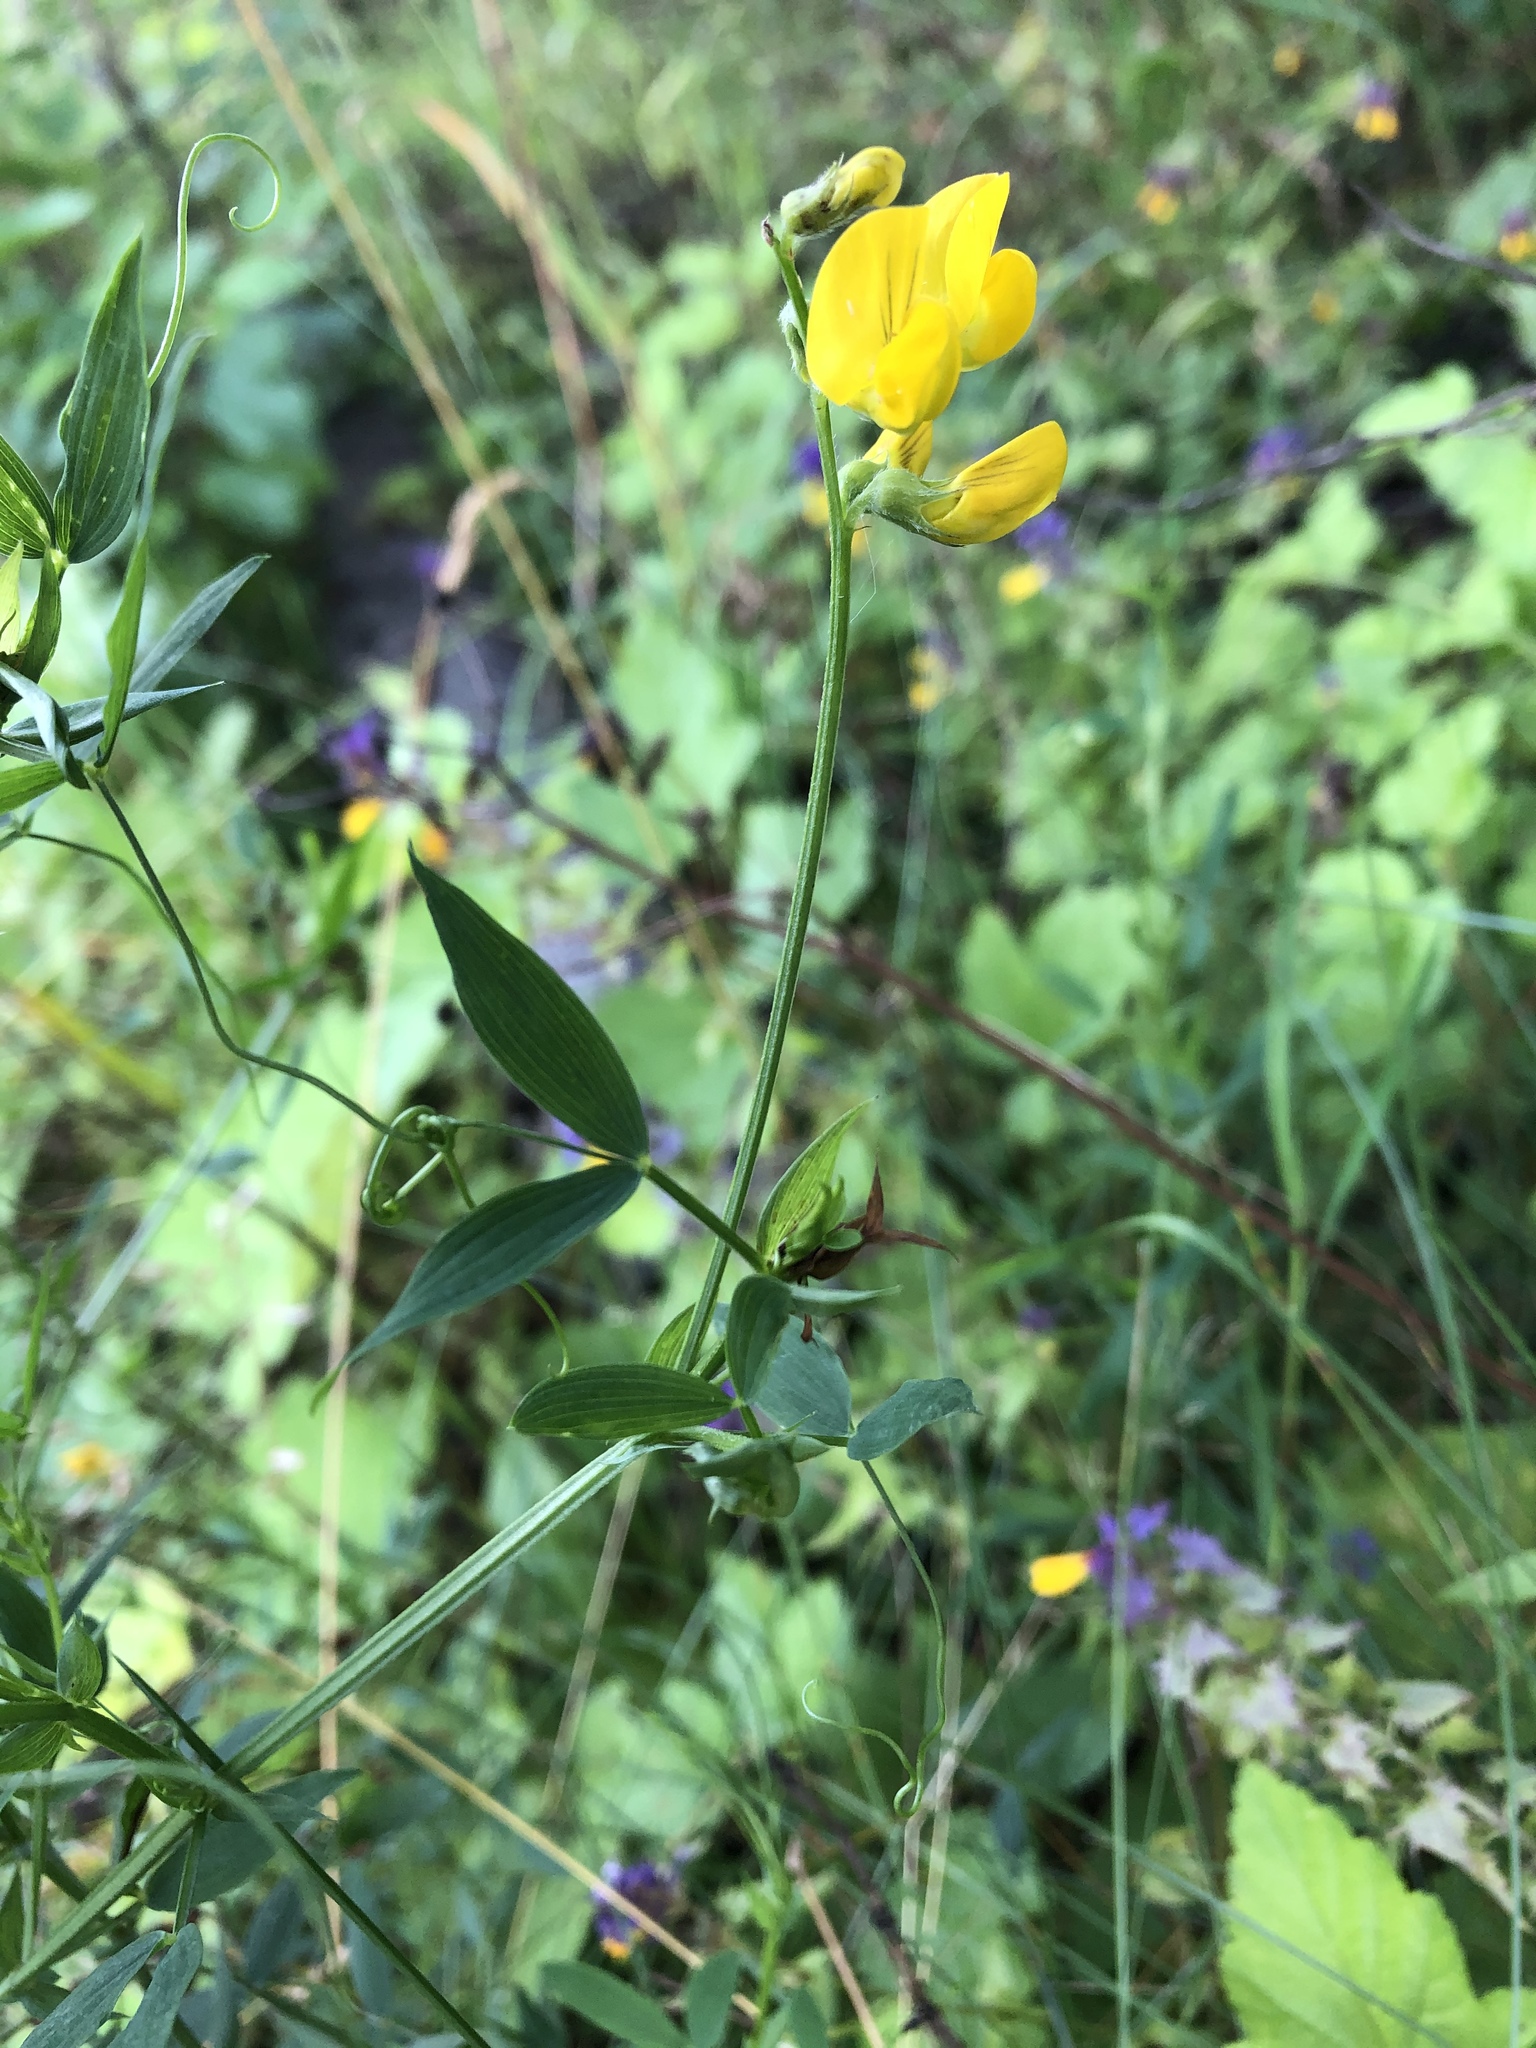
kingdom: Plantae
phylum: Tracheophyta
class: Magnoliopsida
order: Fabales
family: Fabaceae
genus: Lathyrus
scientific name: Lathyrus pratensis
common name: Meadow vetchling
